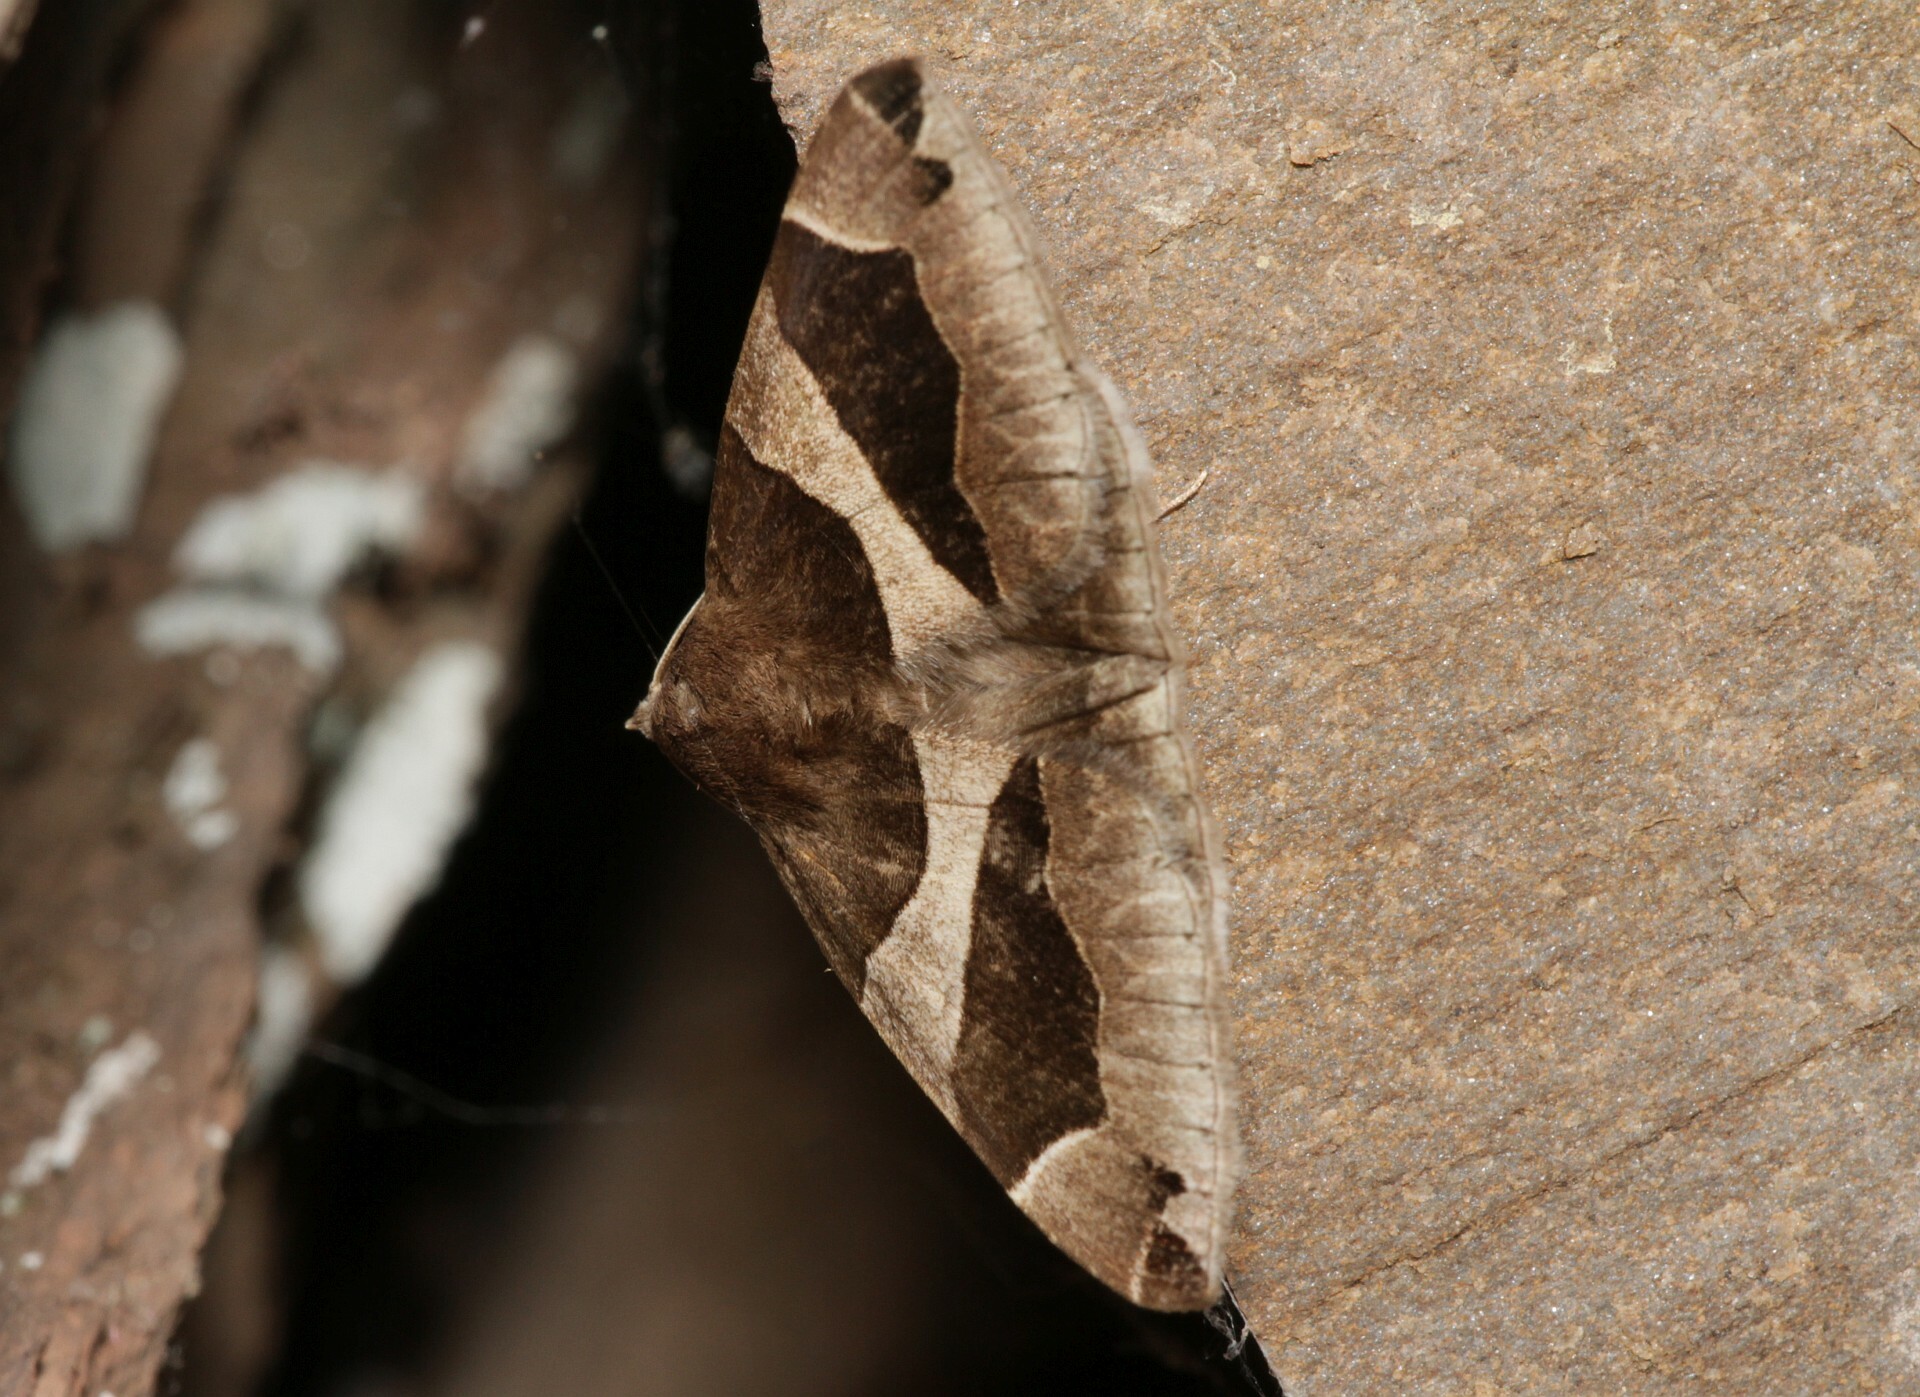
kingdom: Animalia
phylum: Arthropoda
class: Insecta
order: Lepidoptera
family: Erebidae
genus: Dysgonia
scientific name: Dysgonia algira
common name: Passenger
